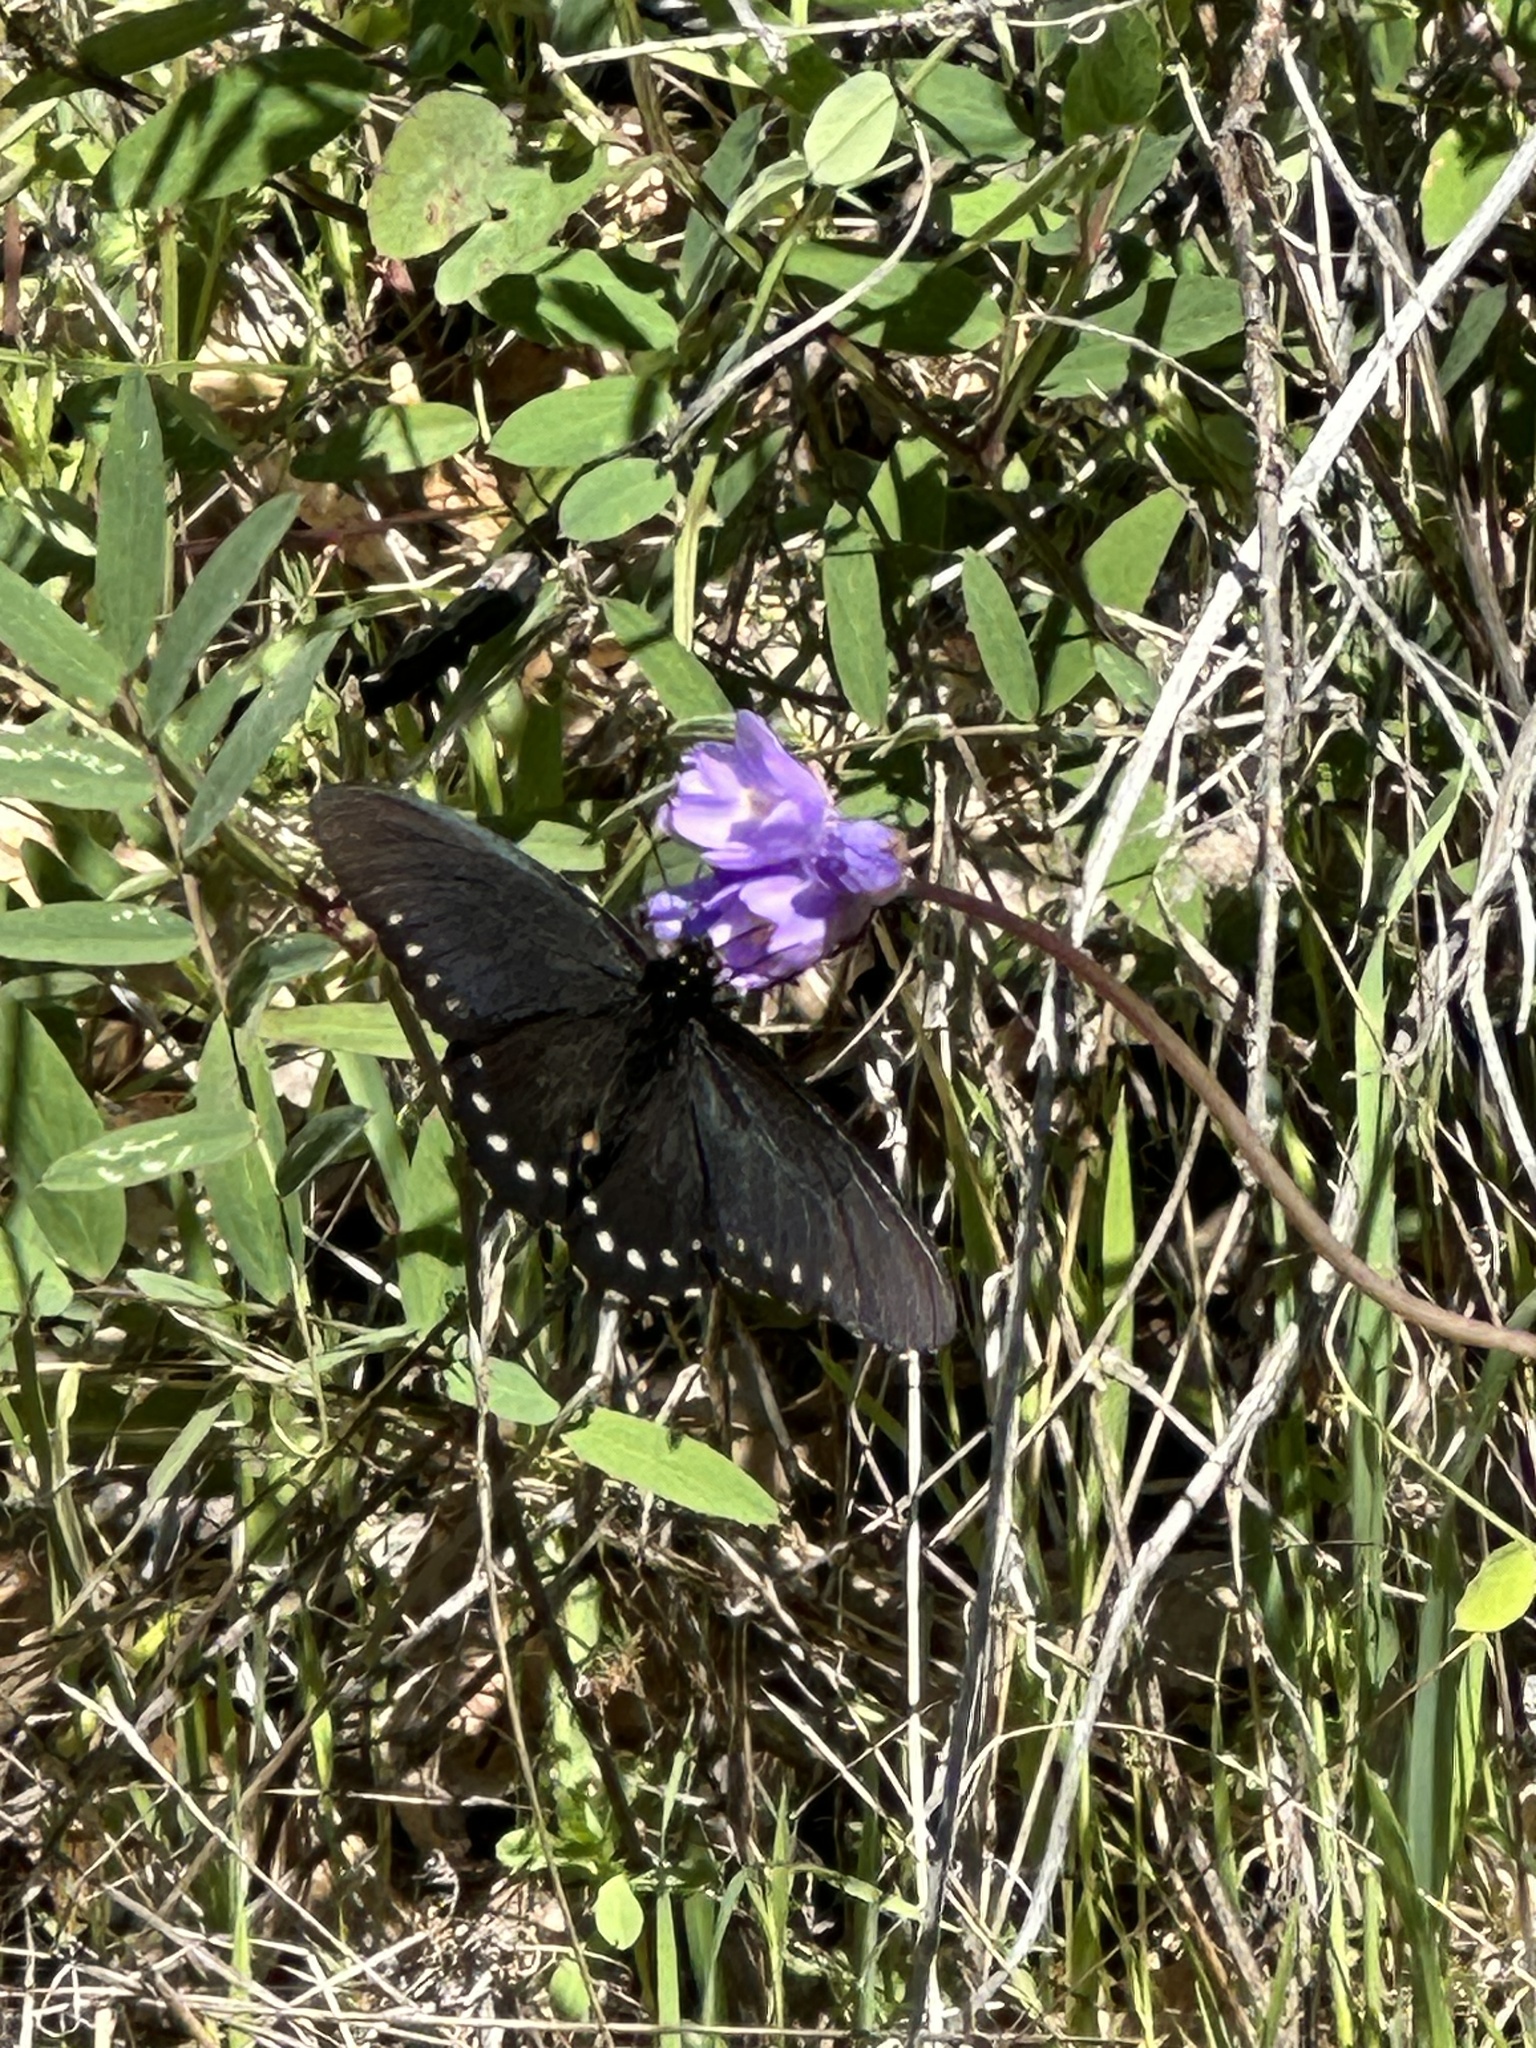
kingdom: Animalia
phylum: Arthropoda
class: Insecta
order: Lepidoptera
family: Papilionidae
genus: Battus
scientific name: Battus philenor
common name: Pipevine swallowtail
